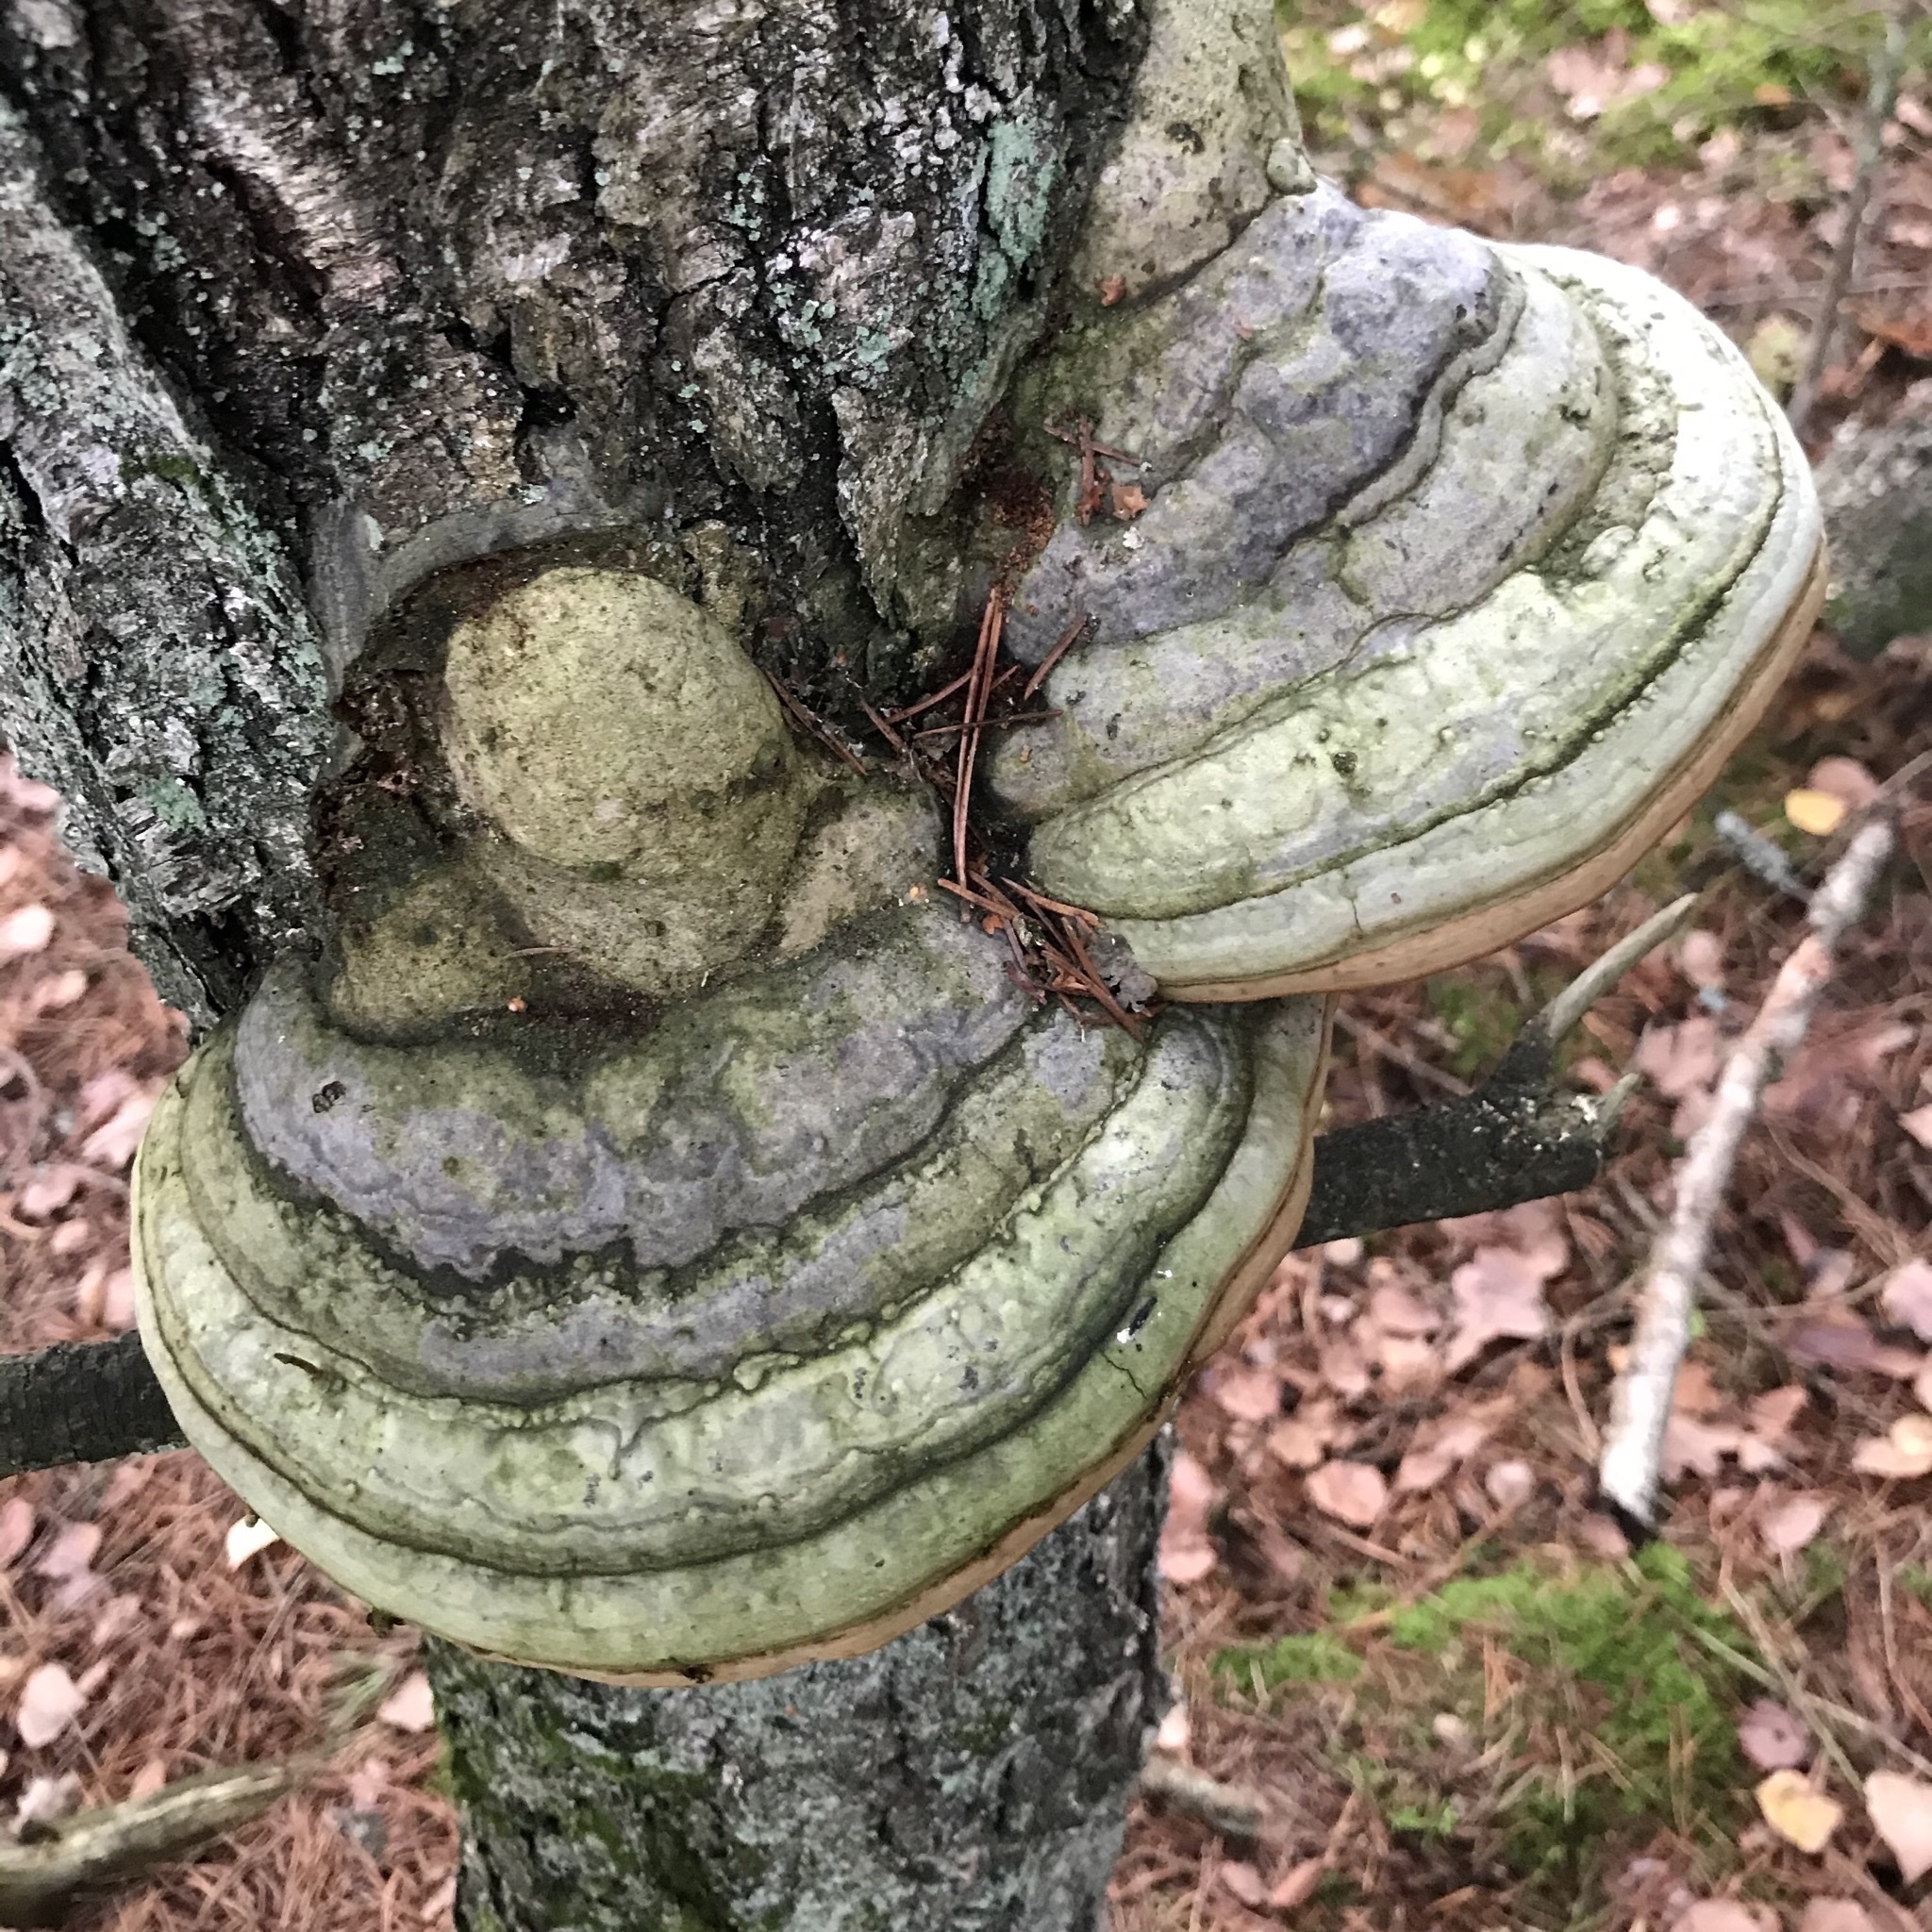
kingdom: Fungi
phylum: Basidiomycota
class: Agaricomycetes
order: Polyporales
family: Polyporaceae
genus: Fomes
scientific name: Fomes fomentarius
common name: Hoof fungus
